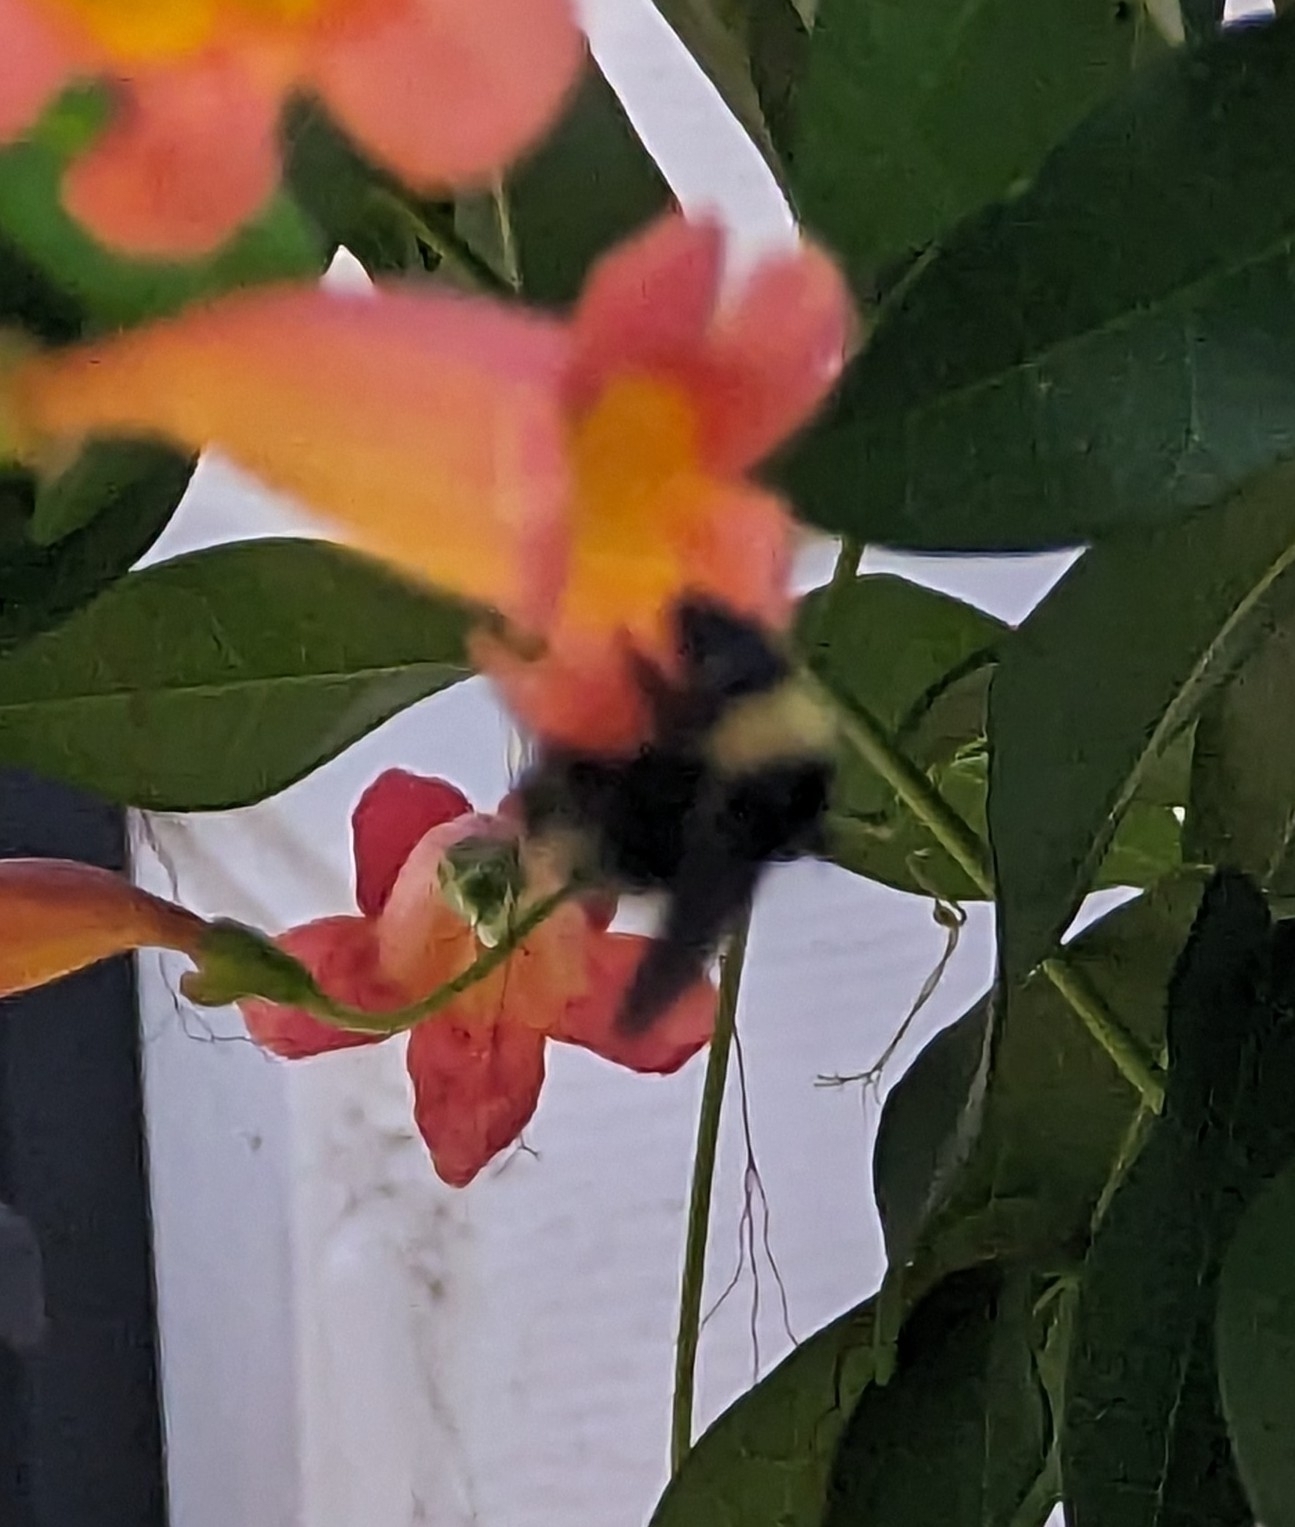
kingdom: Animalia
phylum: Arthropoda
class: Insecta
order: Hymenoptera
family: Apidae
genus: Bombus
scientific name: Bombus pensylvanicus
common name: Bumble bee
